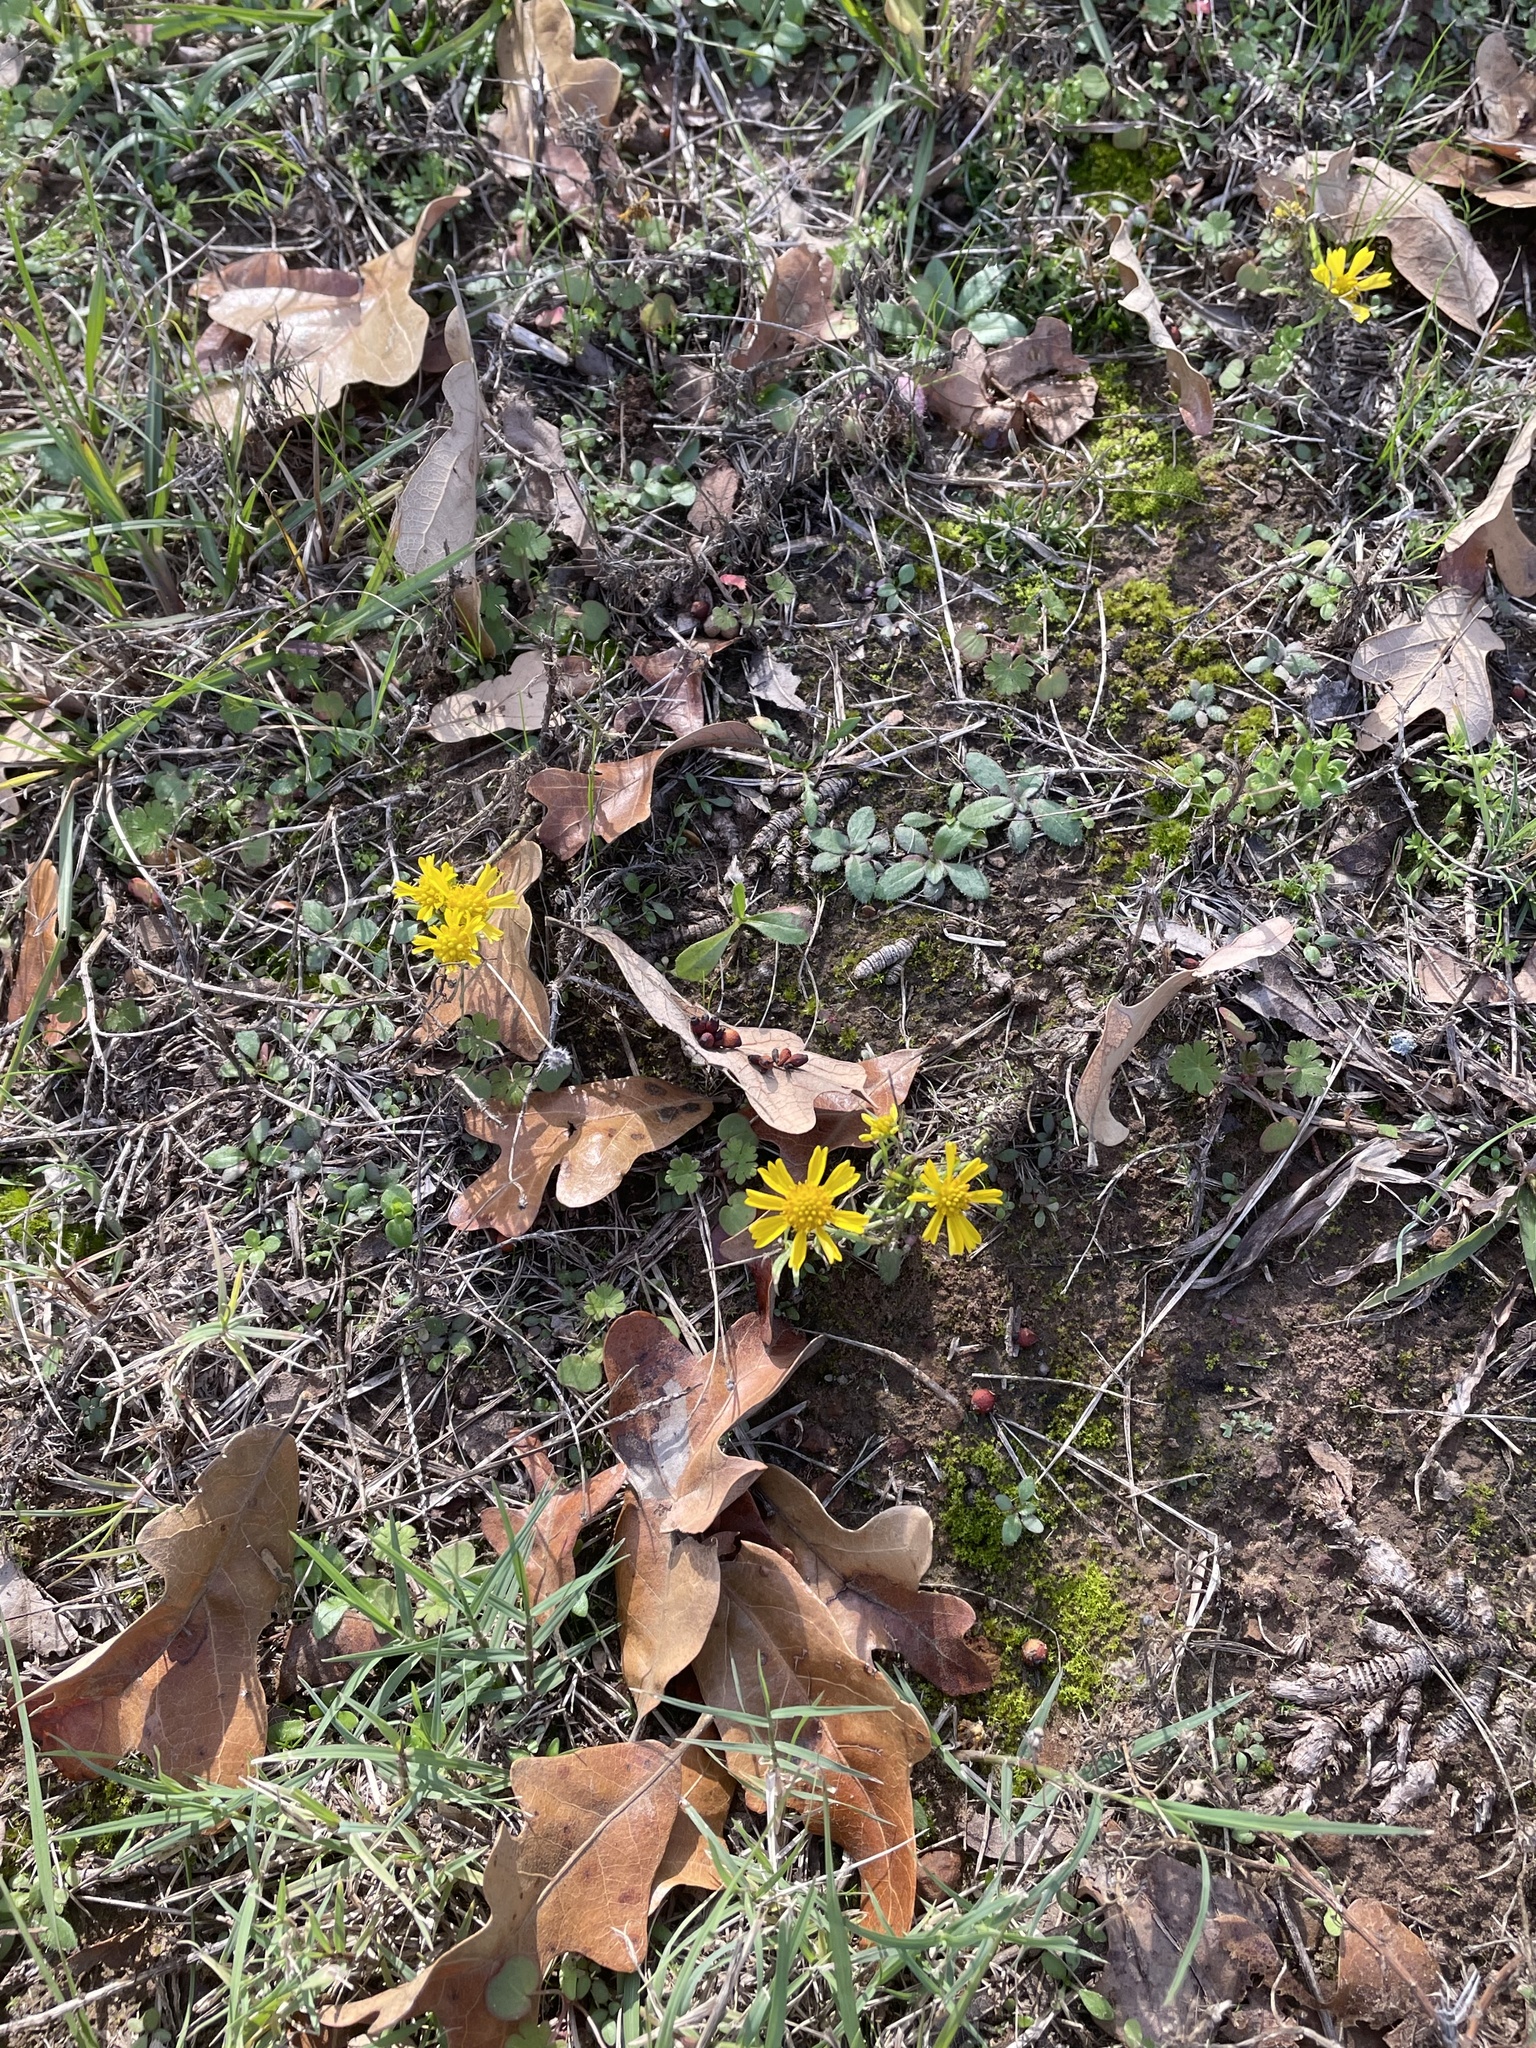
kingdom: Plantae
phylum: Tracheophyta
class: Magnoliopsida
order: Asterales
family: Asteraceae
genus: Helenium
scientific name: Helenium amarum
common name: Bitter sneezeweed
